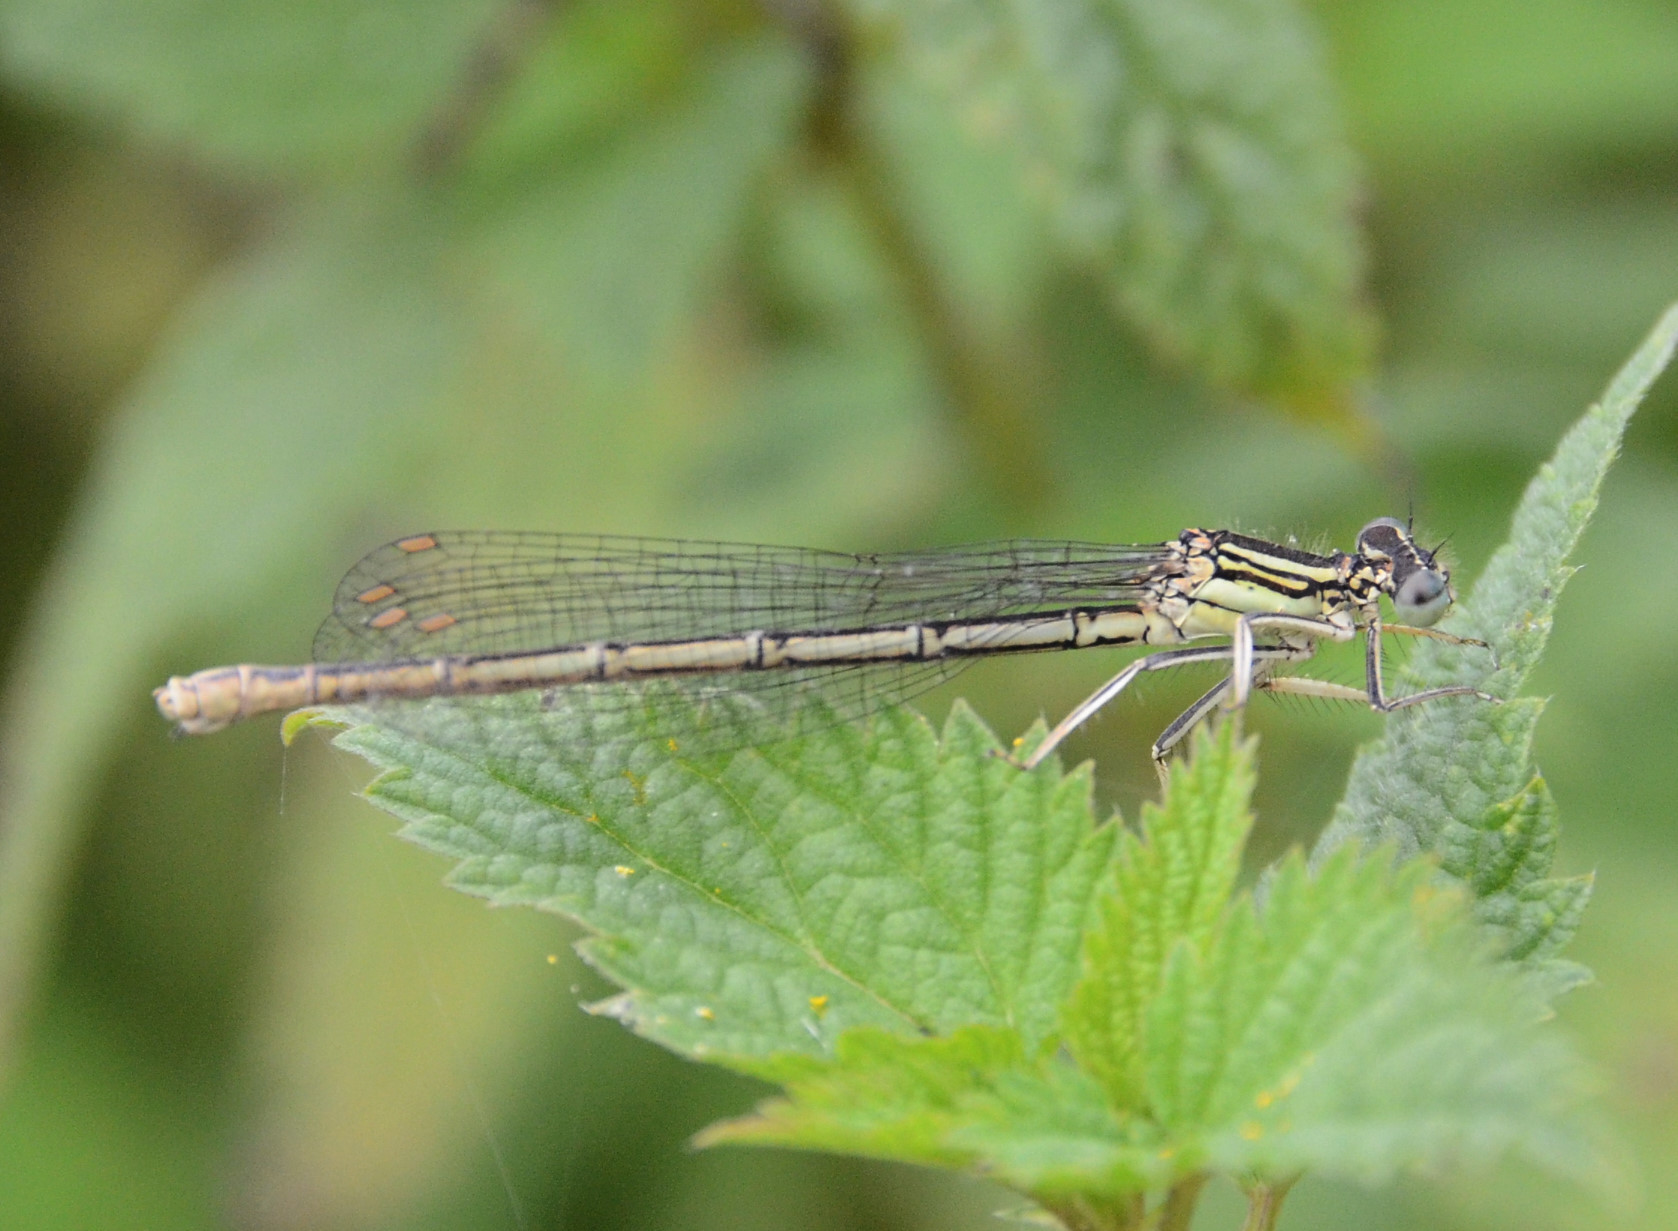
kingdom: Animalia
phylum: Arthropoda
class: Insecta
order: Odonata
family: Platycnemididae
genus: Platycnemis
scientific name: Platycnemis pennipes
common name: White-legged damselfly
